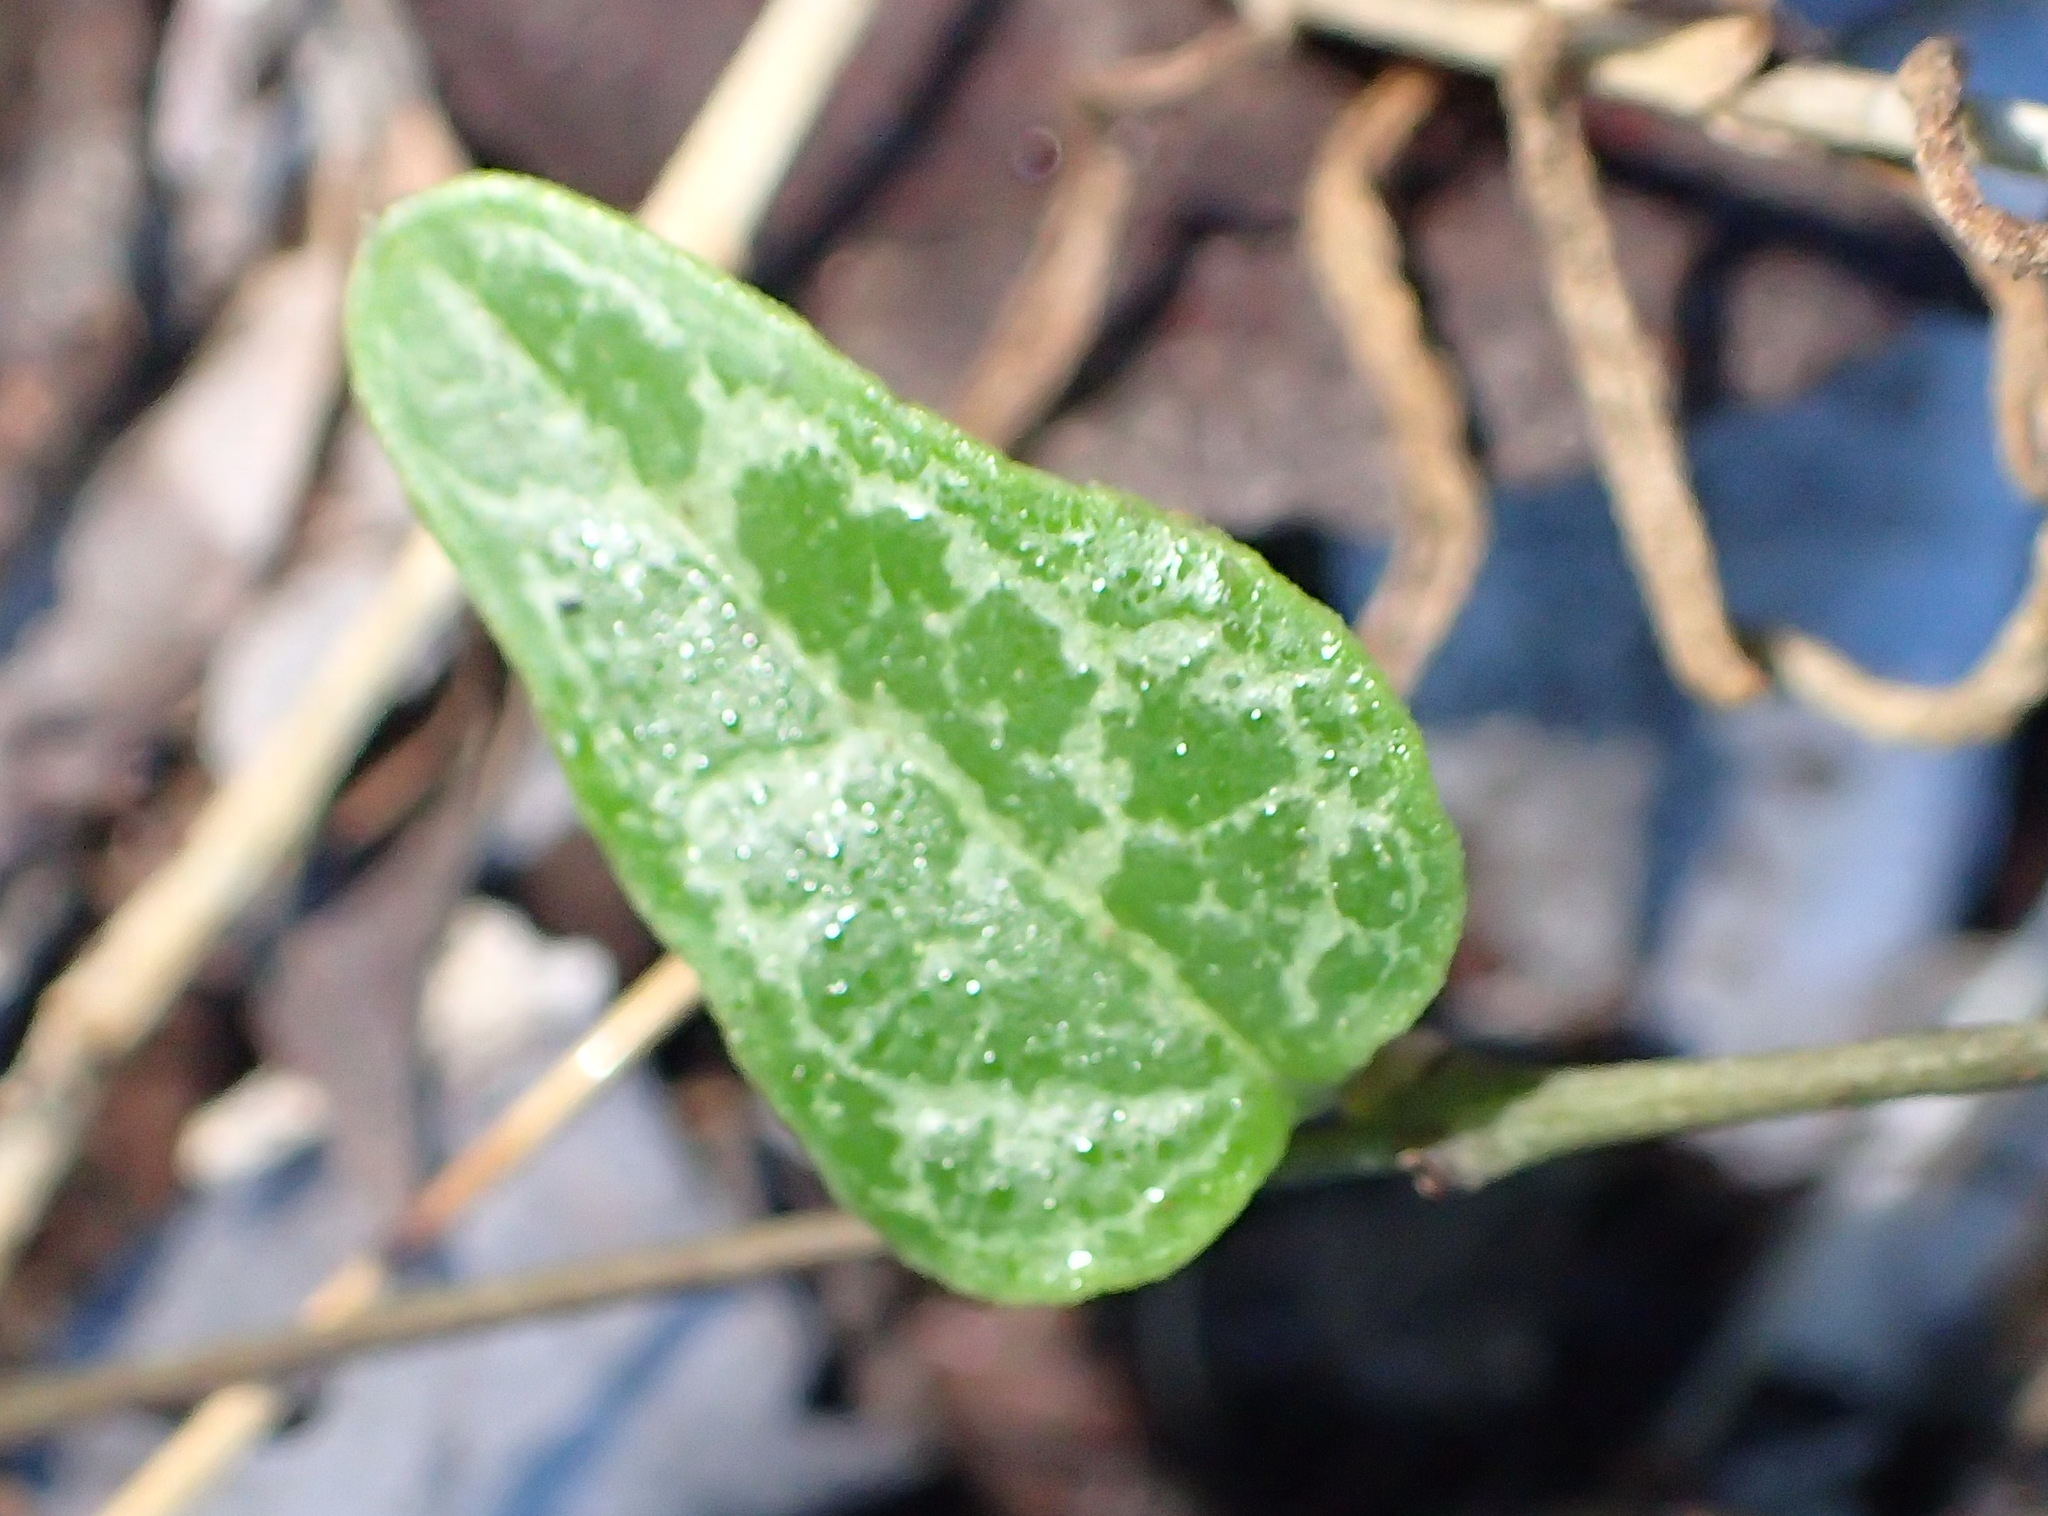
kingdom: Plantae
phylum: Tracheophyta
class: Magnoliopsida
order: Gentianales
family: Apocynaceae
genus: Ceropegia
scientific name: Ceropegia linearis
